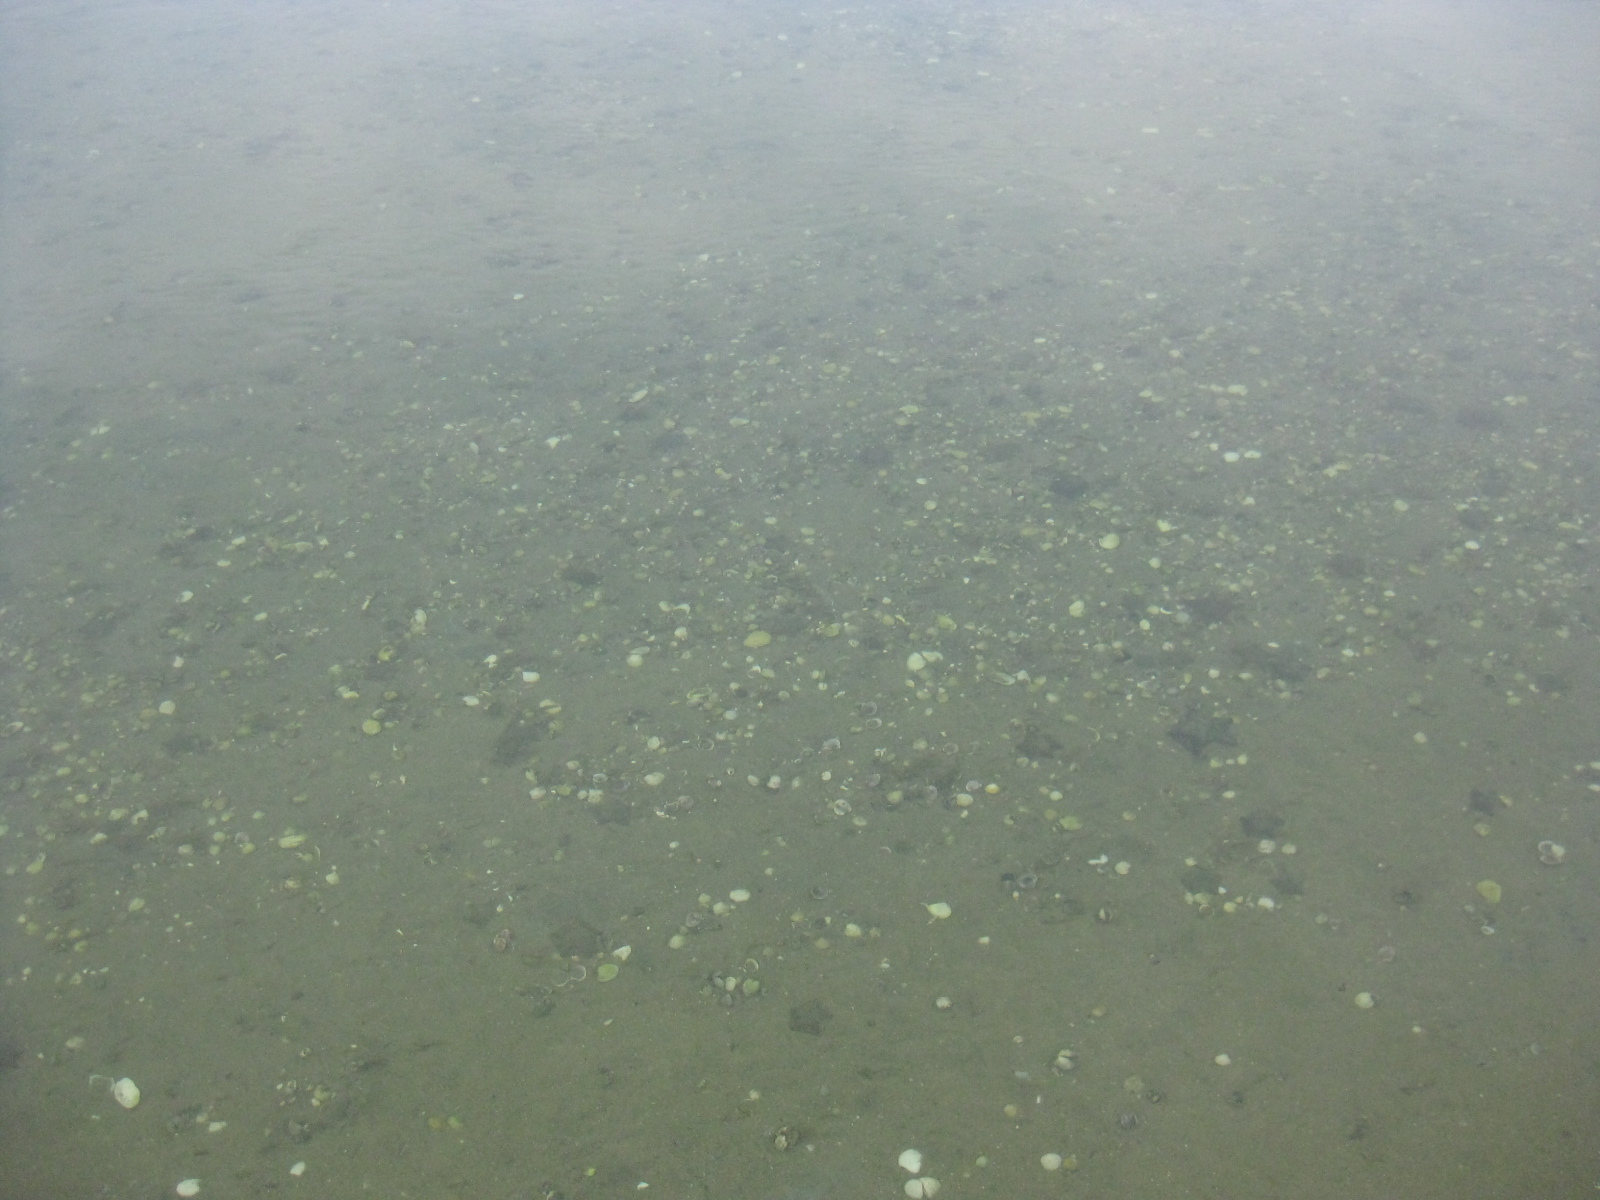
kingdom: Animalia
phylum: Echinodermata
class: Asteroidea
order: Valvatida
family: Asterinidae
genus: Patiriella
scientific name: Patiriella regularis
